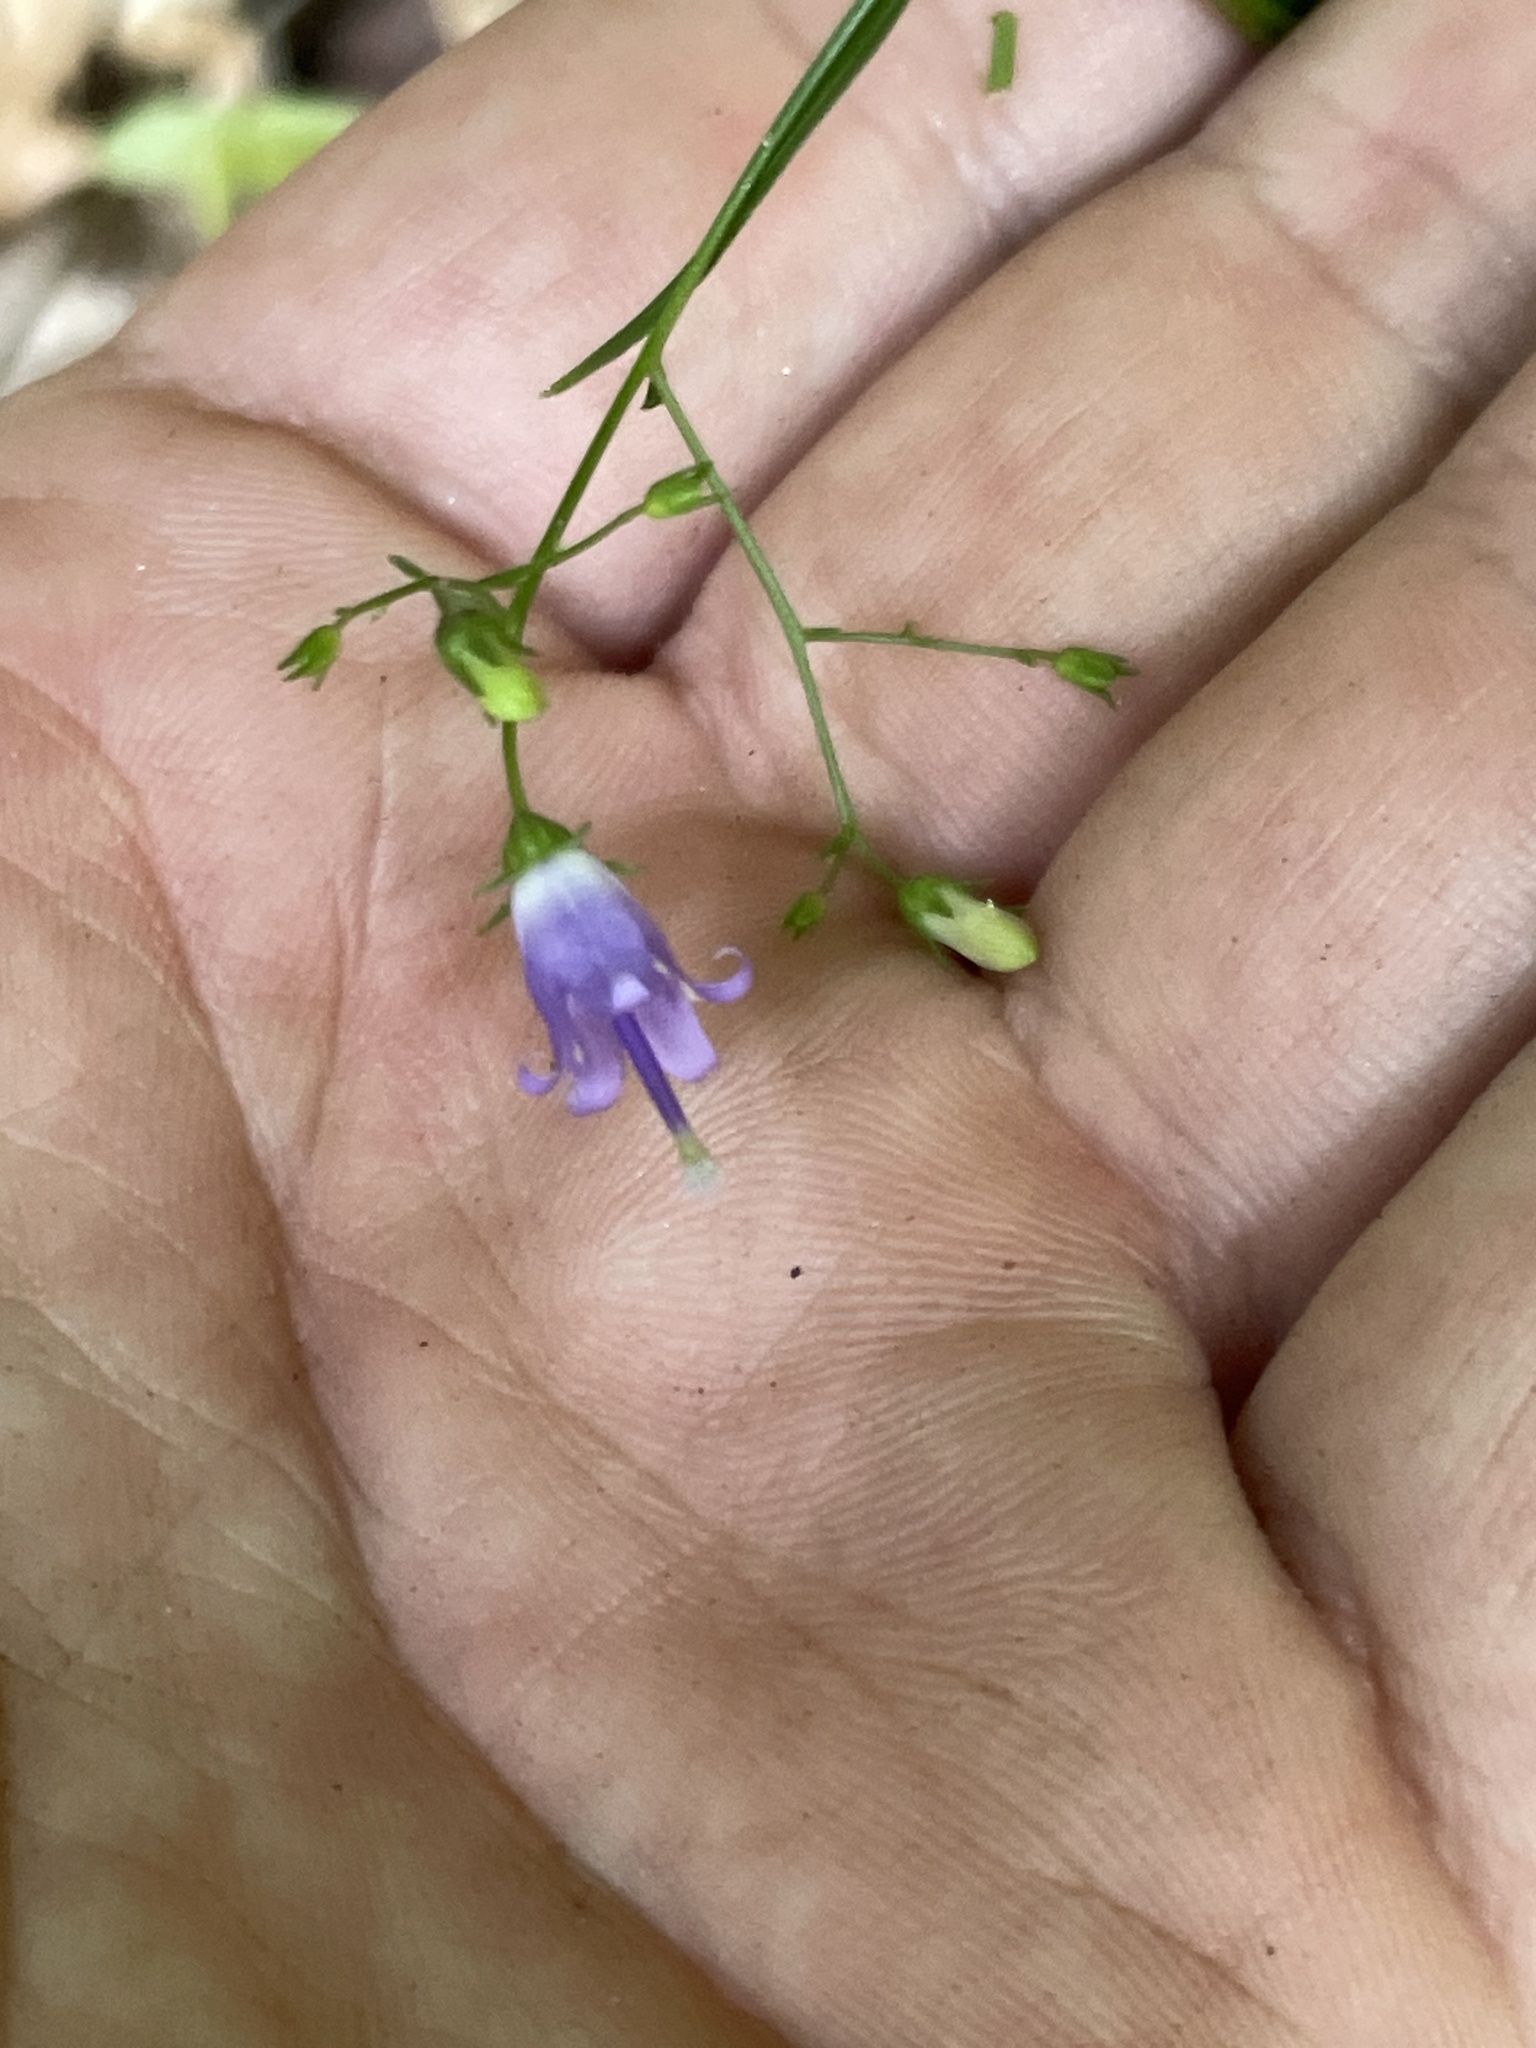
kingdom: Plantae
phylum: Tracheophyta
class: Magnoliopsida
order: Asterales
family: Campanulaceae
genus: Campanula
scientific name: Campanula divaricata
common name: Appalachian bellflower
